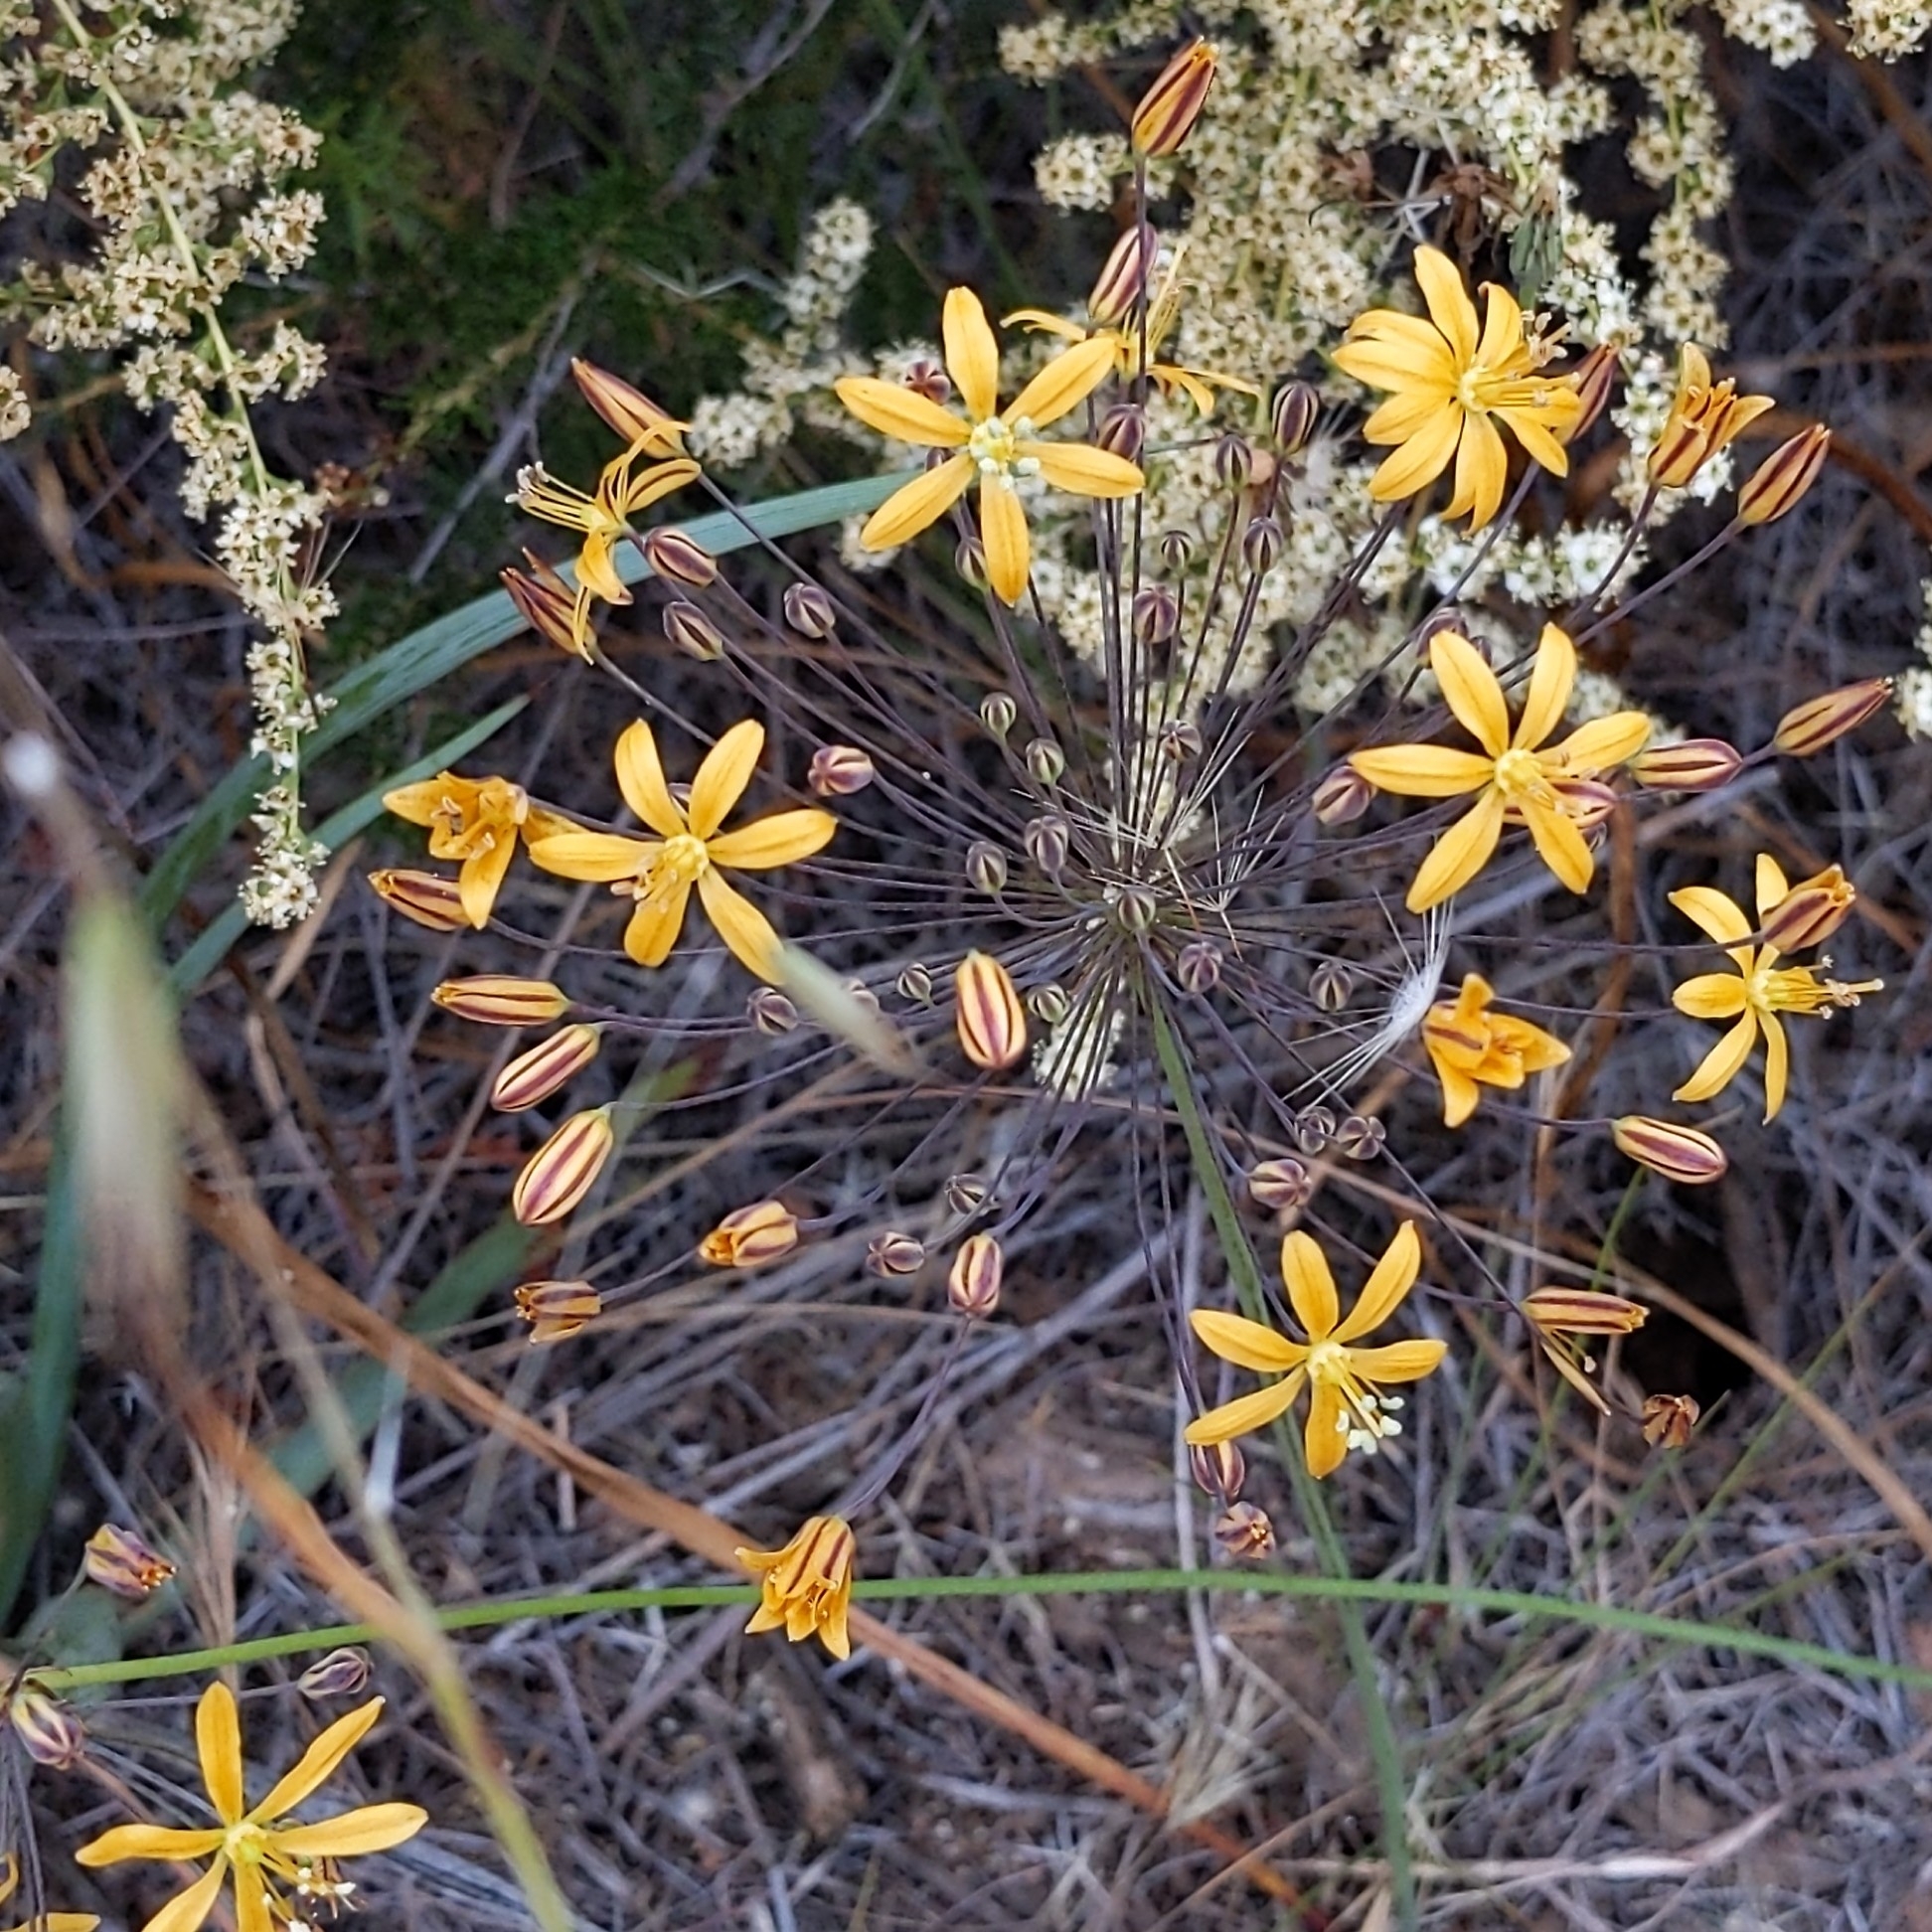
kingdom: Plantae
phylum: Tracheophyta
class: Liliopsida
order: Asparagales
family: Asparagaceae
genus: Bloomeria
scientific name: Bloomeria crocea
